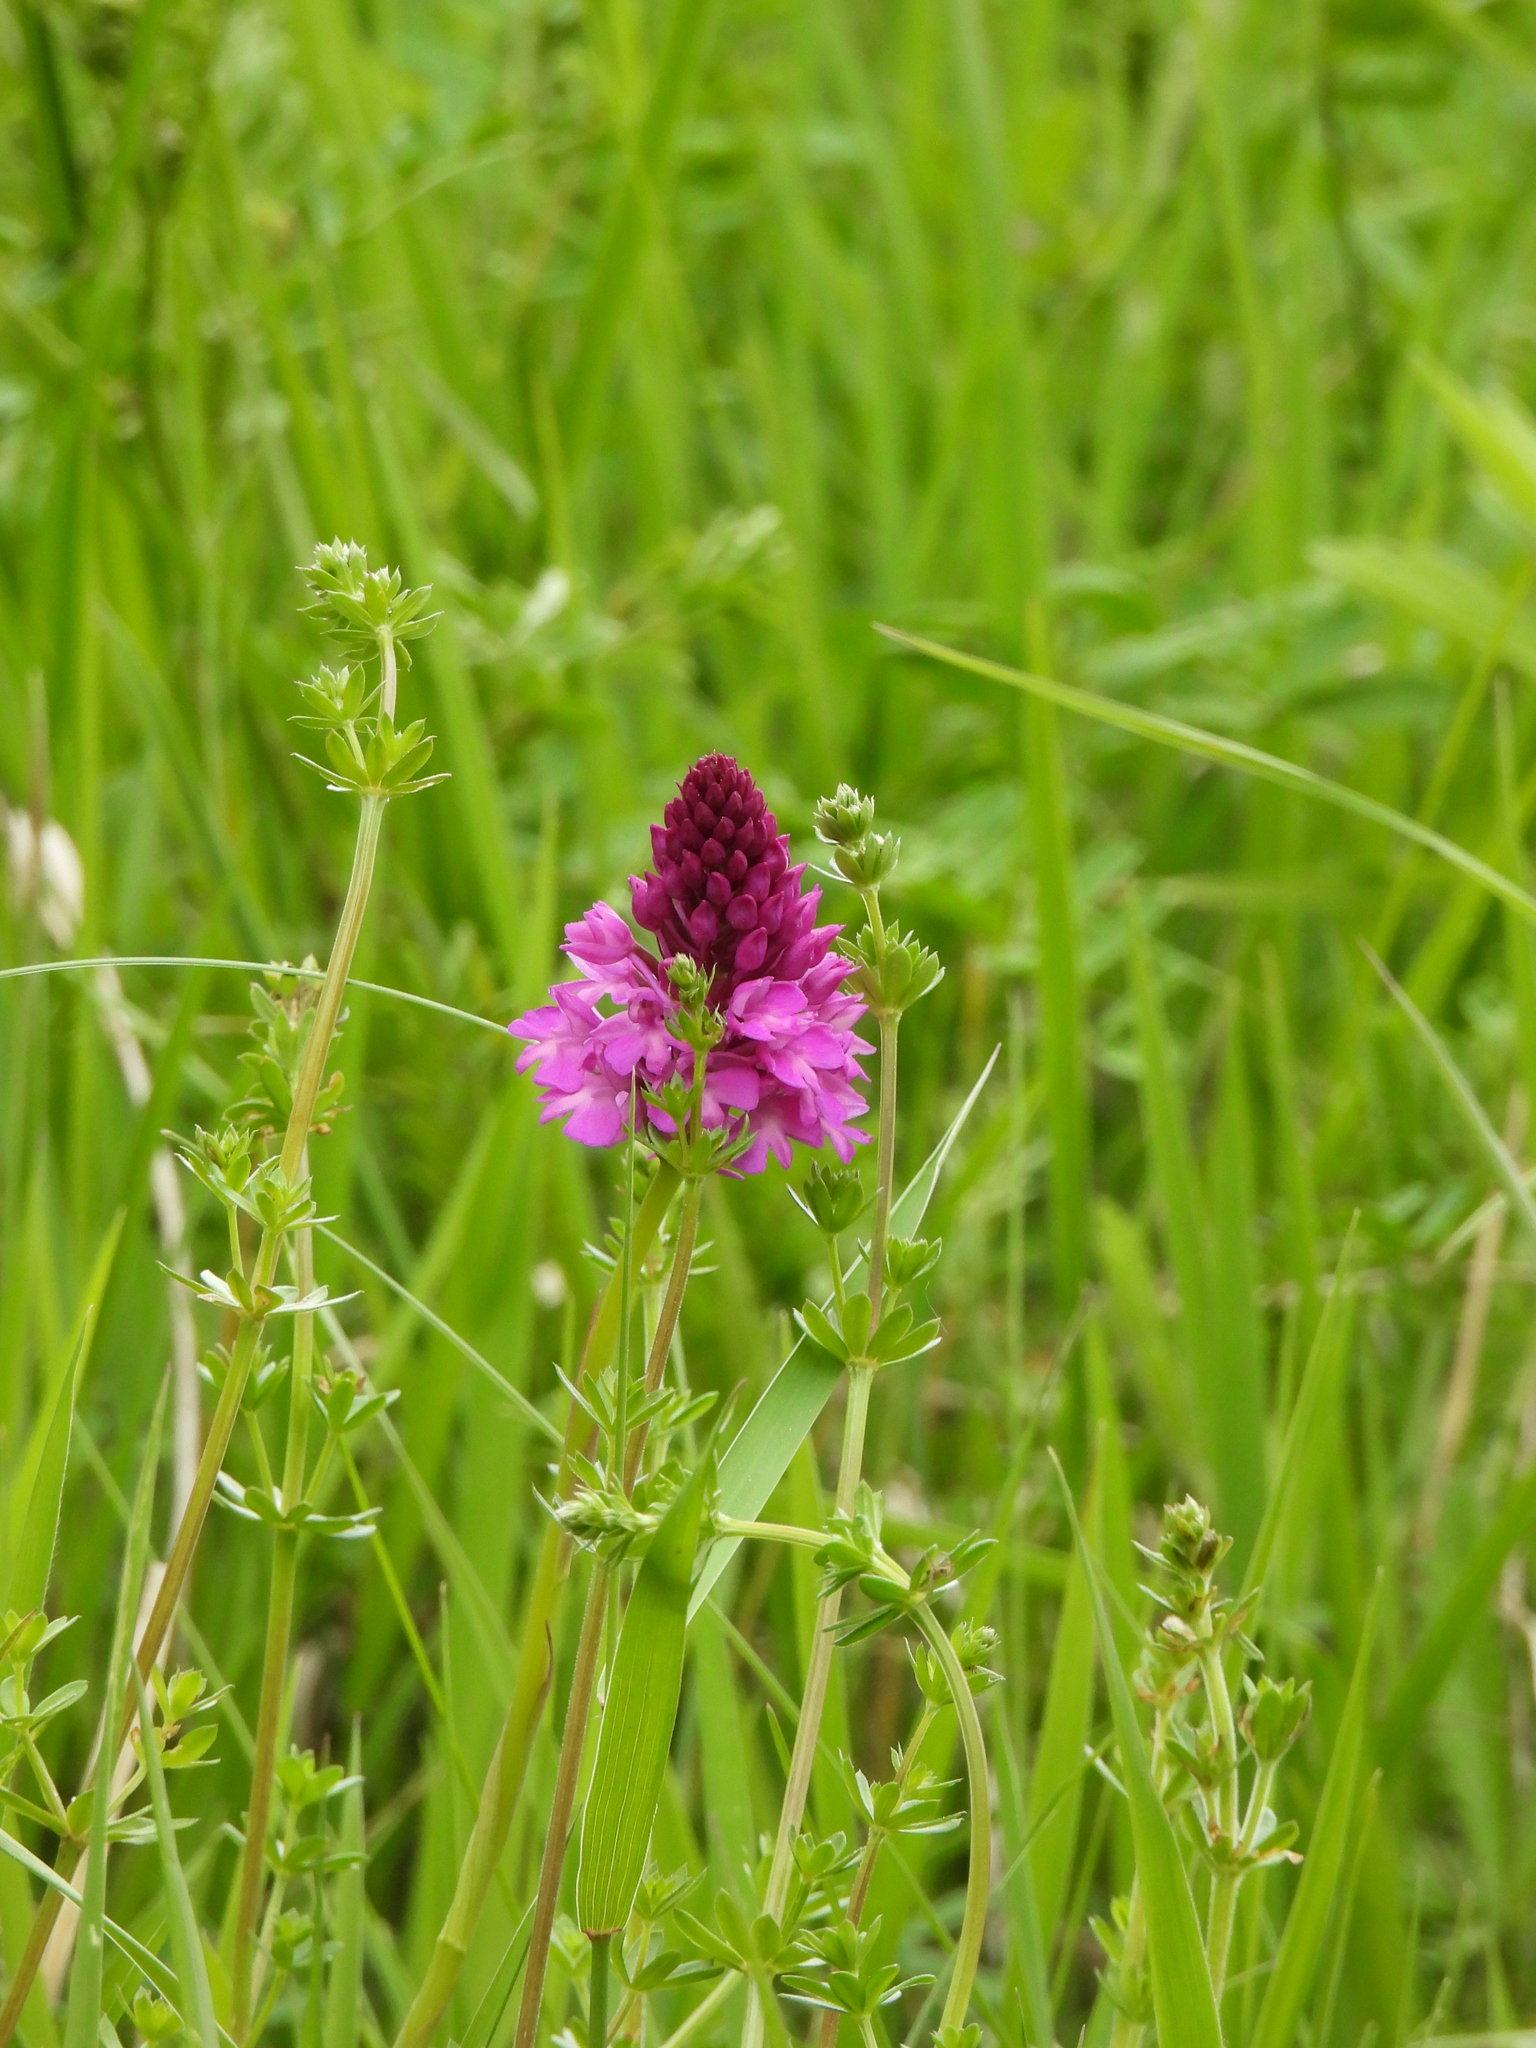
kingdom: Plantae
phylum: Tracheophyta
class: Liliopsida
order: Asparagales
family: Orchidaceae
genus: Anacamptis
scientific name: Anacamptis pyramidalis
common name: Pyramidal orchid
